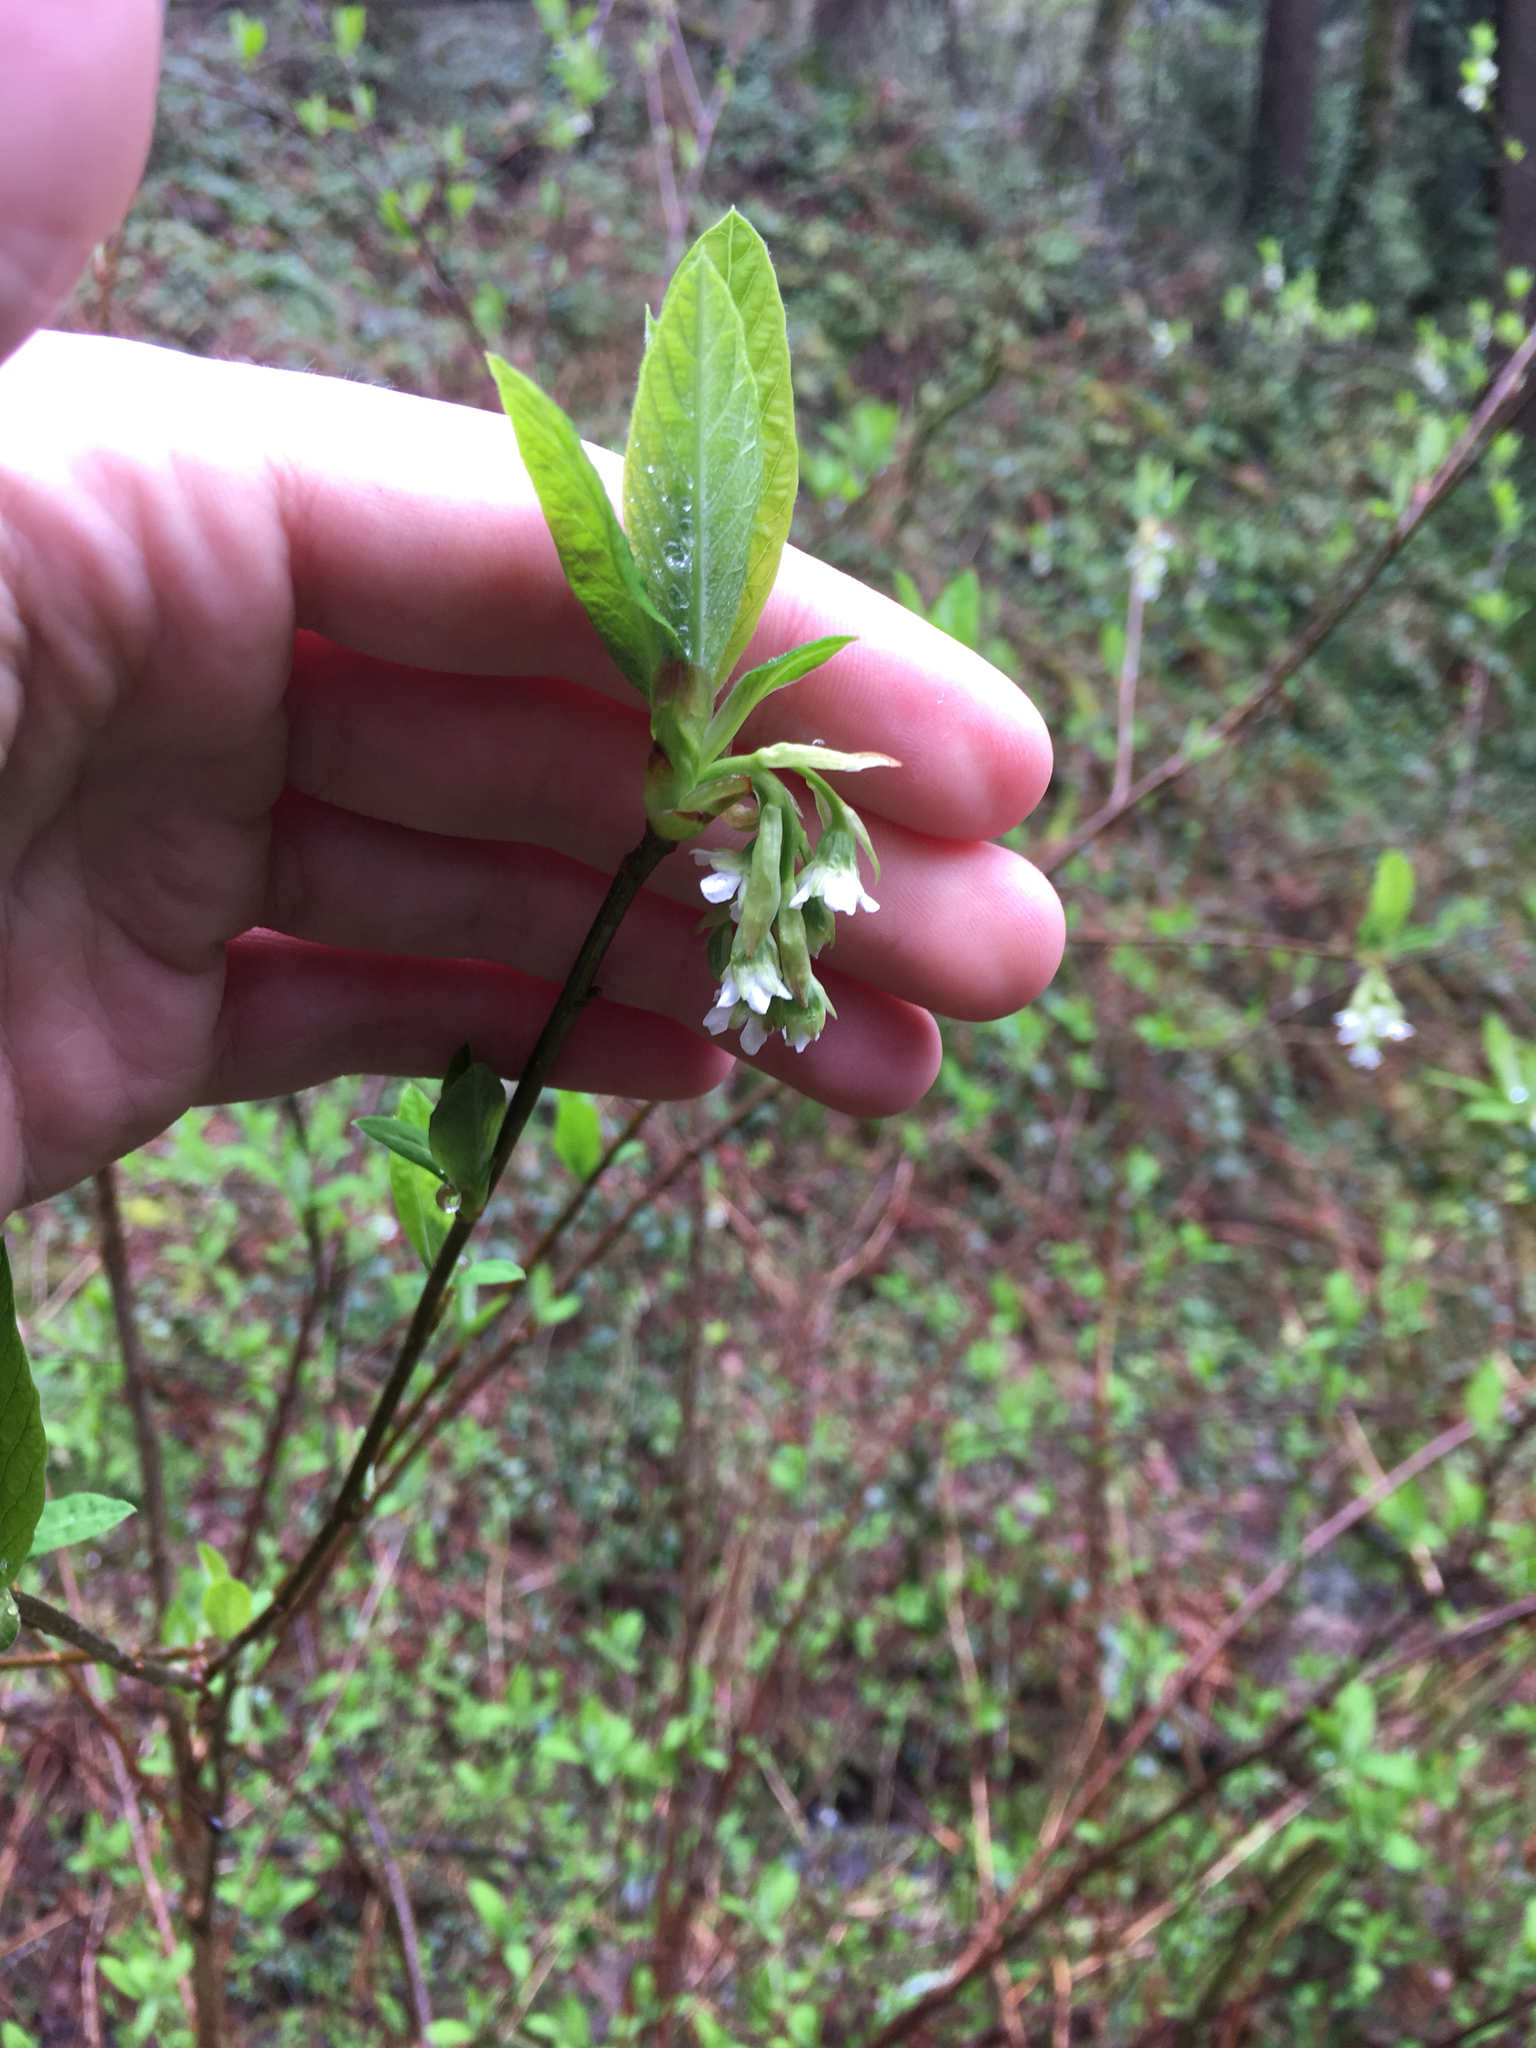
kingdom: Plantae
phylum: Tracheophyta
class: Magnoliopsida
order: Rosales
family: Rosaceae
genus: Oemleria
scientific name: Oemleria cerasiformis
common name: Osoberry
